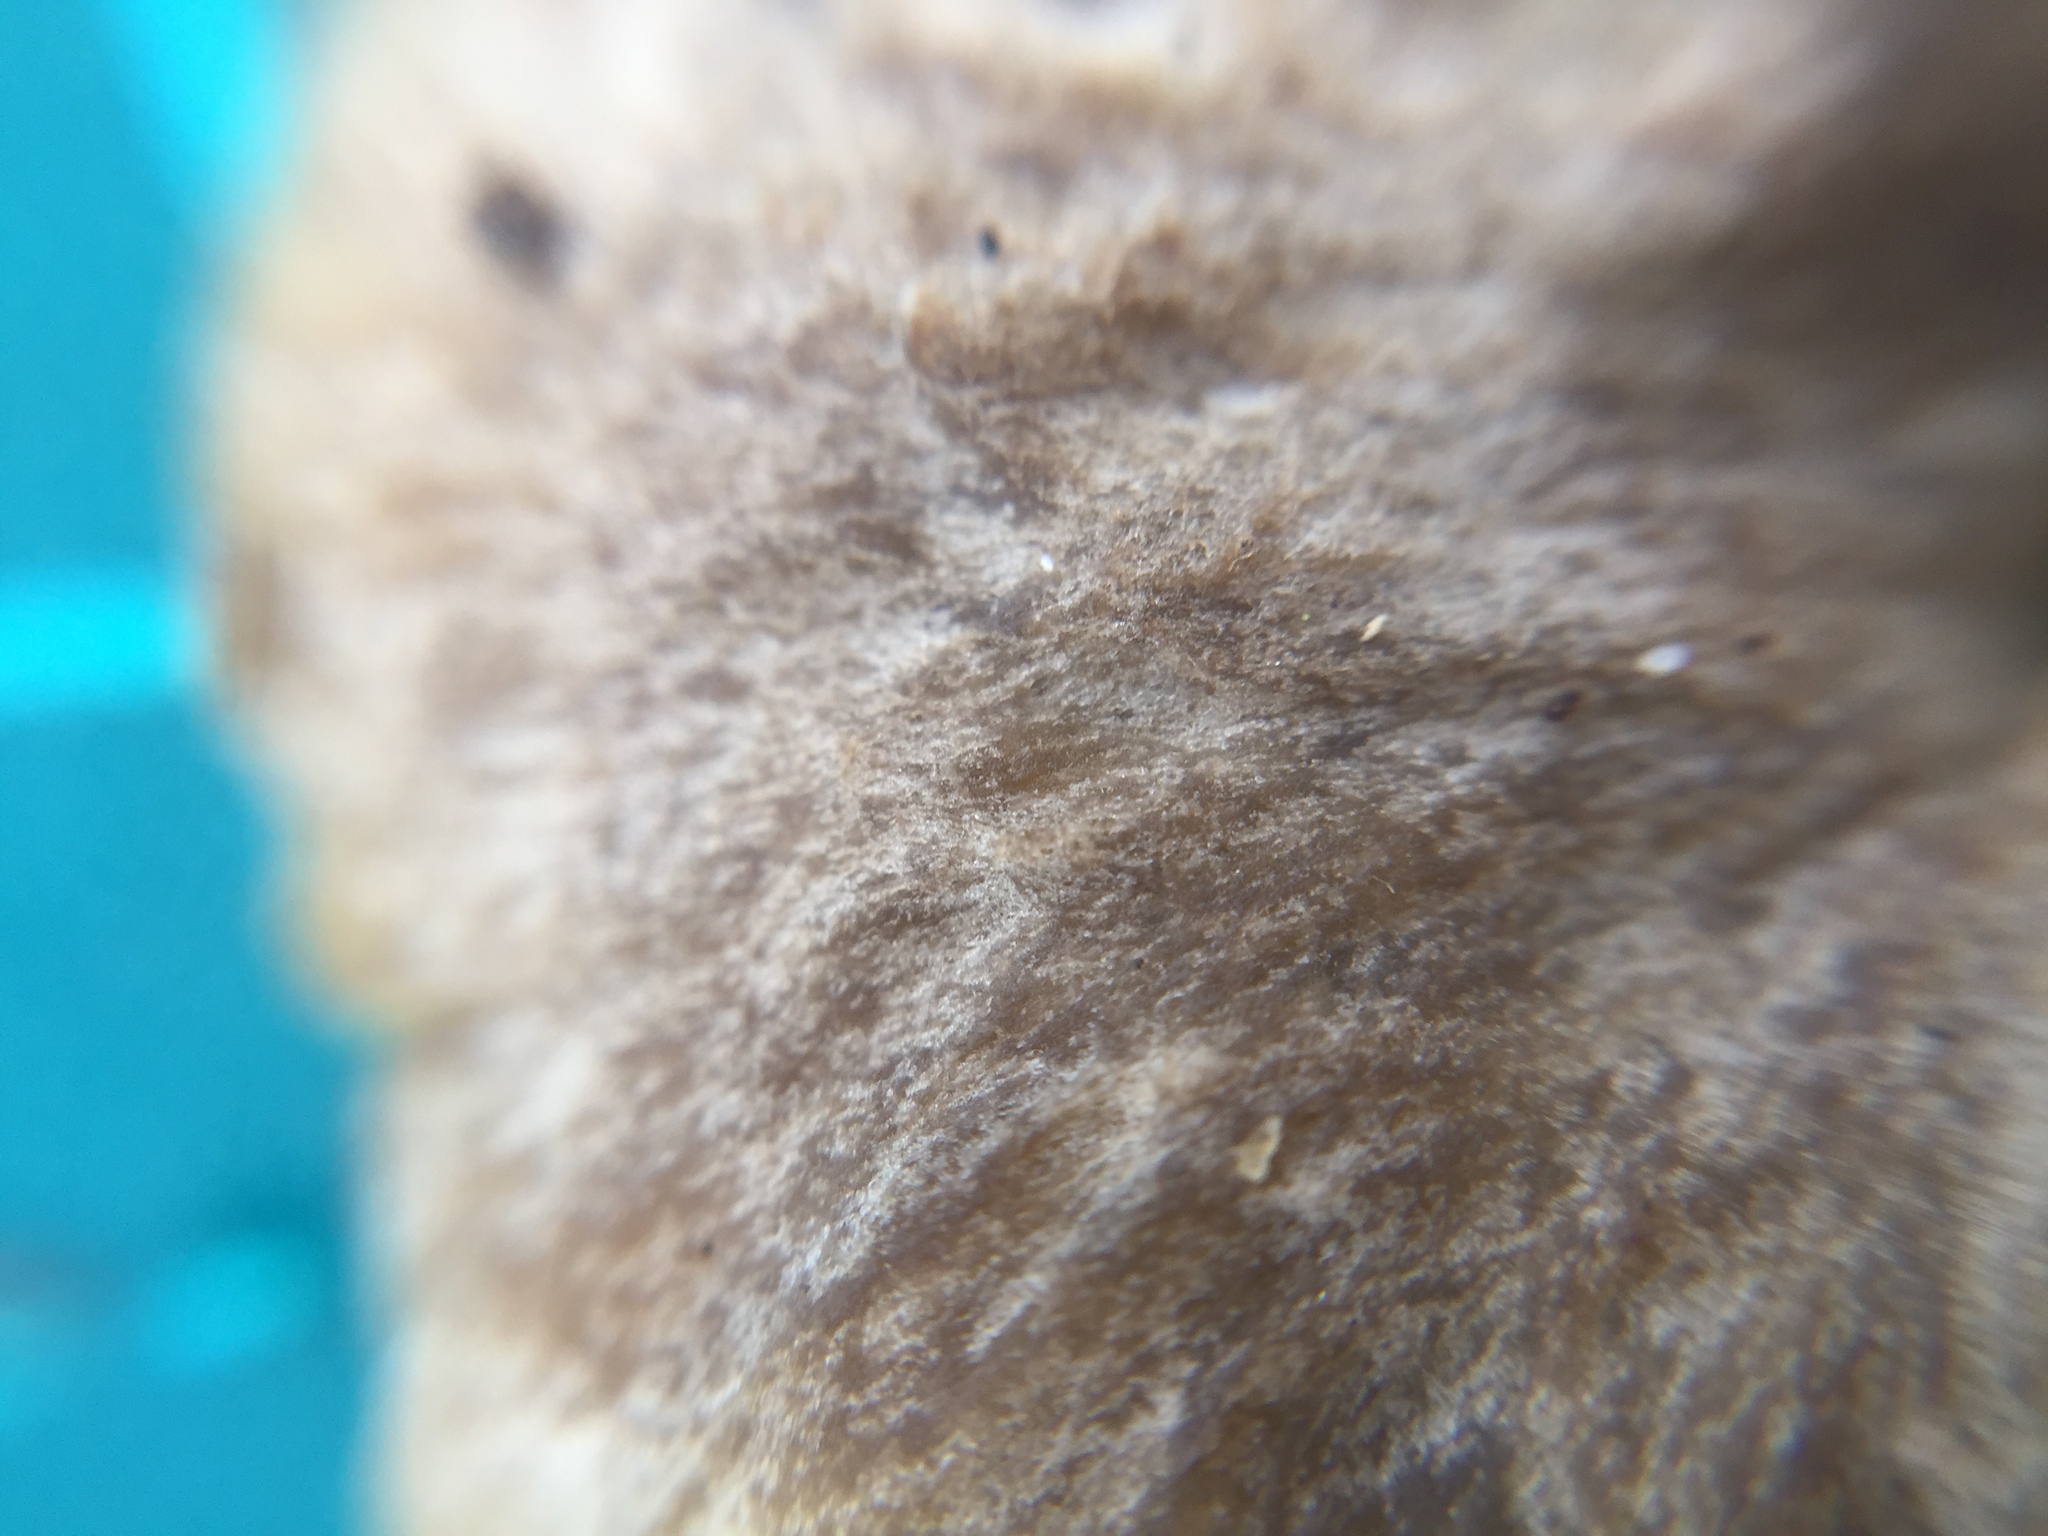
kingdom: Fungi
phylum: Basidiomycota
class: Agaricomycetes
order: Cantharellales
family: Hydnaceae
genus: Craterellus
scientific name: Craterellus tubaeformis
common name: Yellowfoot
